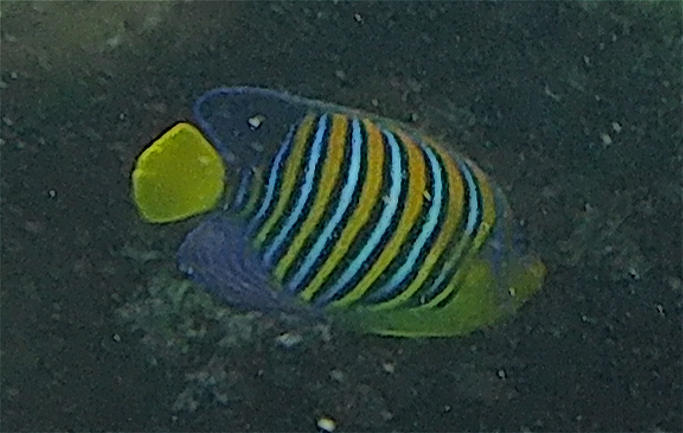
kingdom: Animalia
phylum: Chordata
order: Perciformes
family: Pomacanthidae
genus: Pygoplites
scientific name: Pygoplites diacanthus
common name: Regal angelfish
